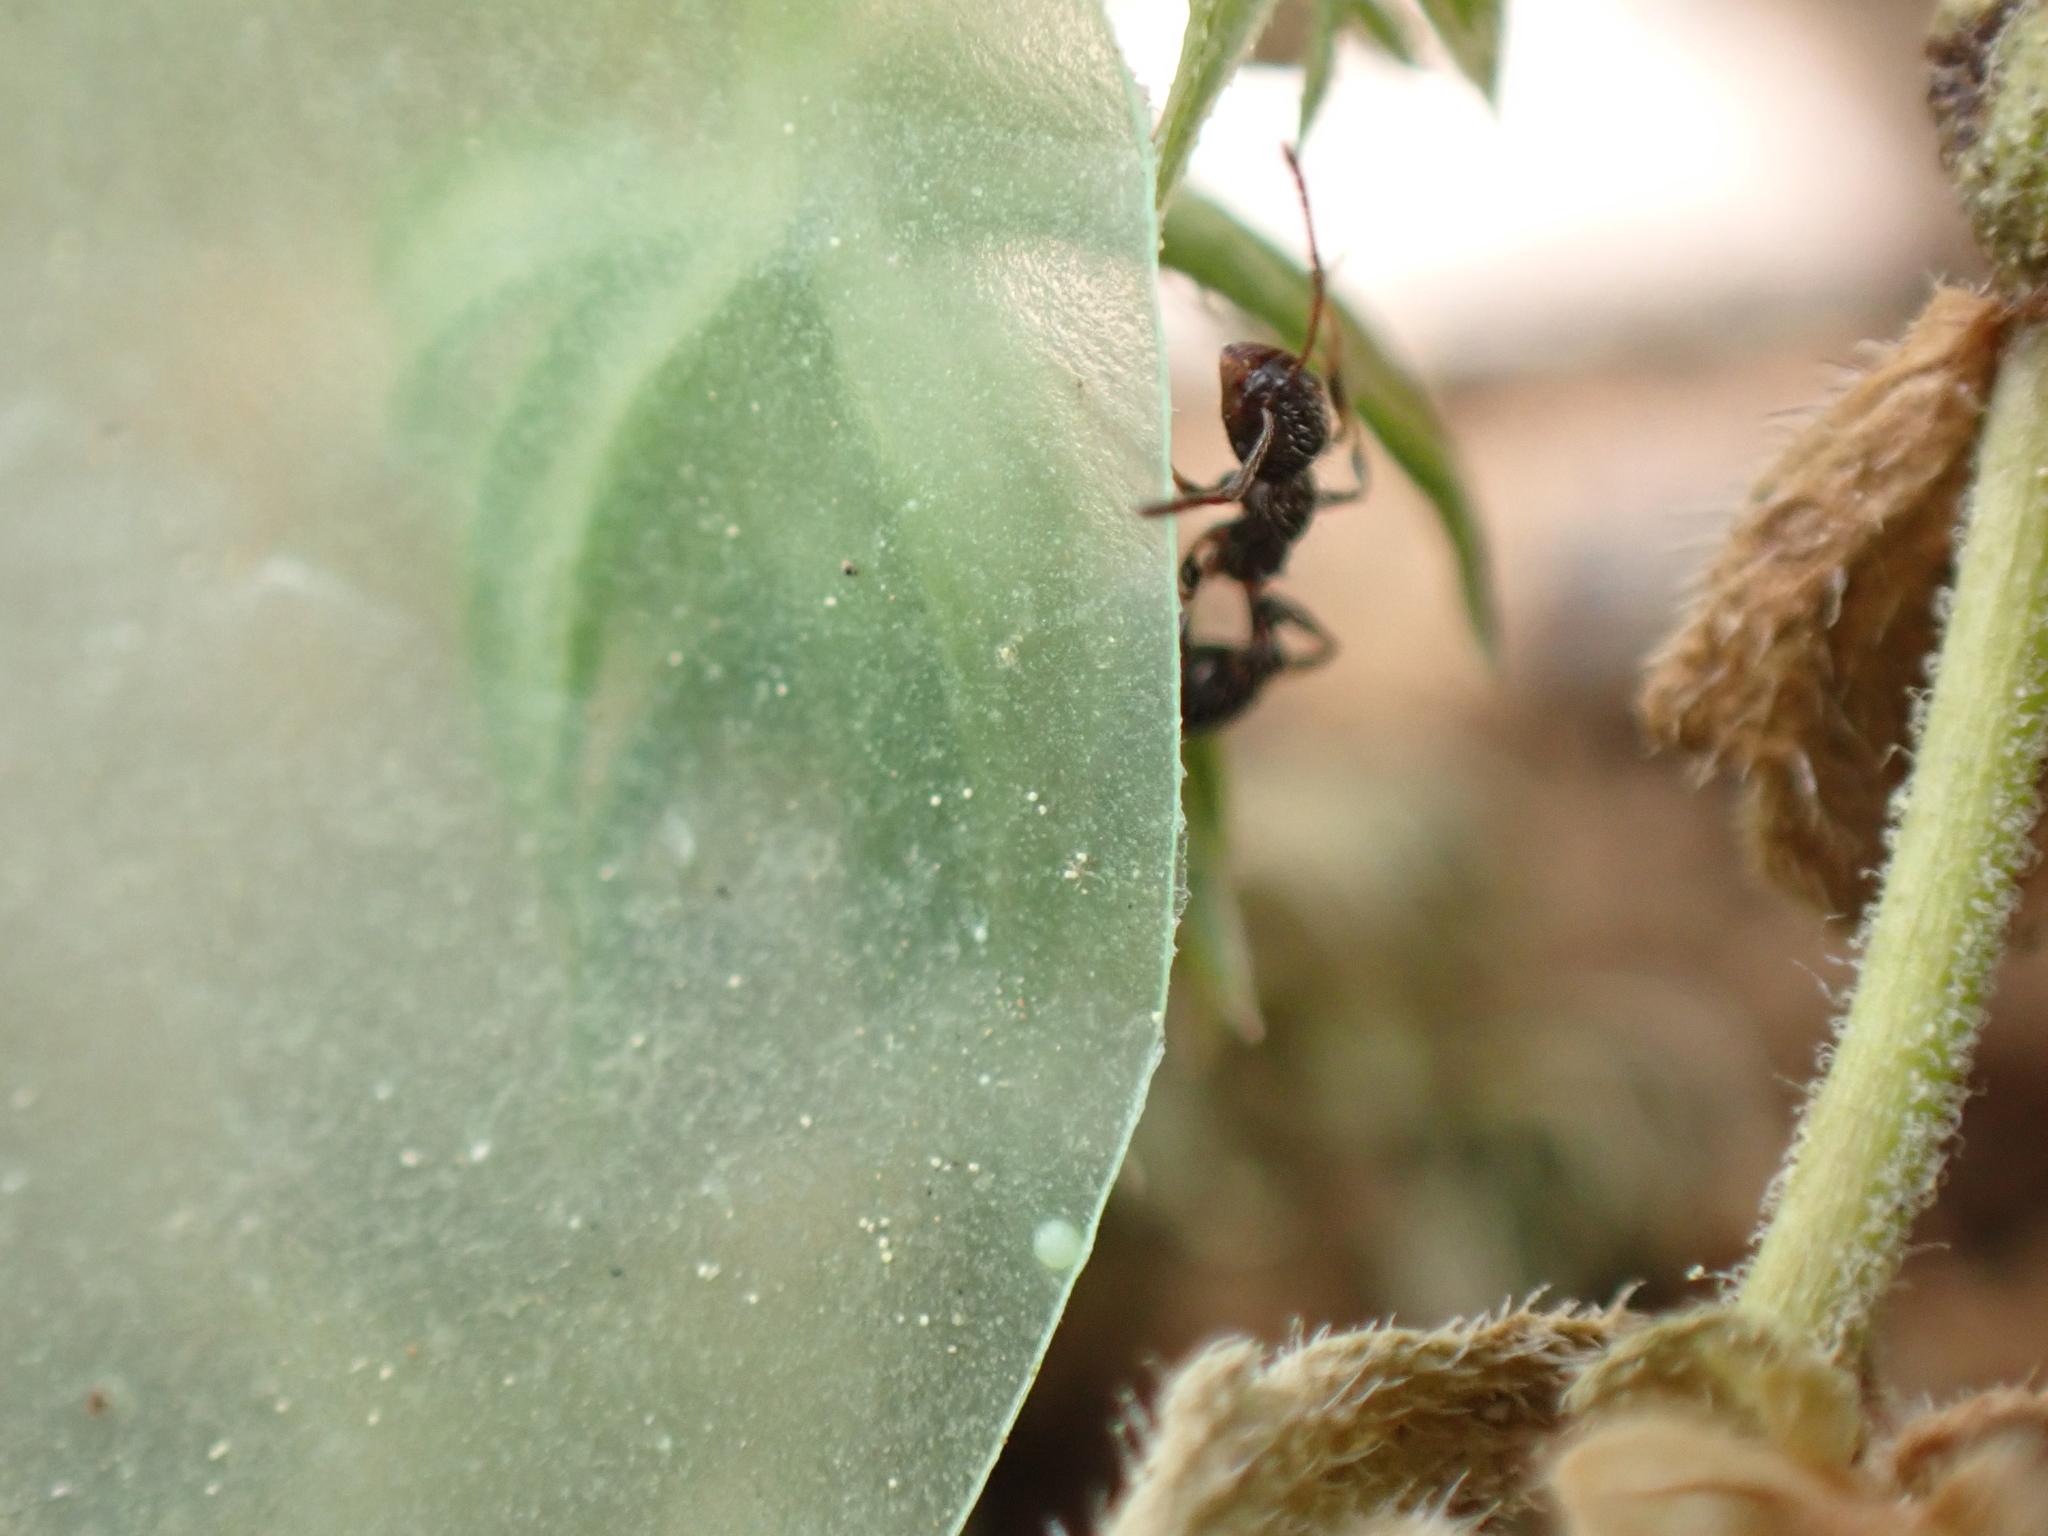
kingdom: Animalia
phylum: Arthropoda
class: Insecta
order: Hymenoptera
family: Formicidae
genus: Temnothorax
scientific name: Temnothorax pergandei
